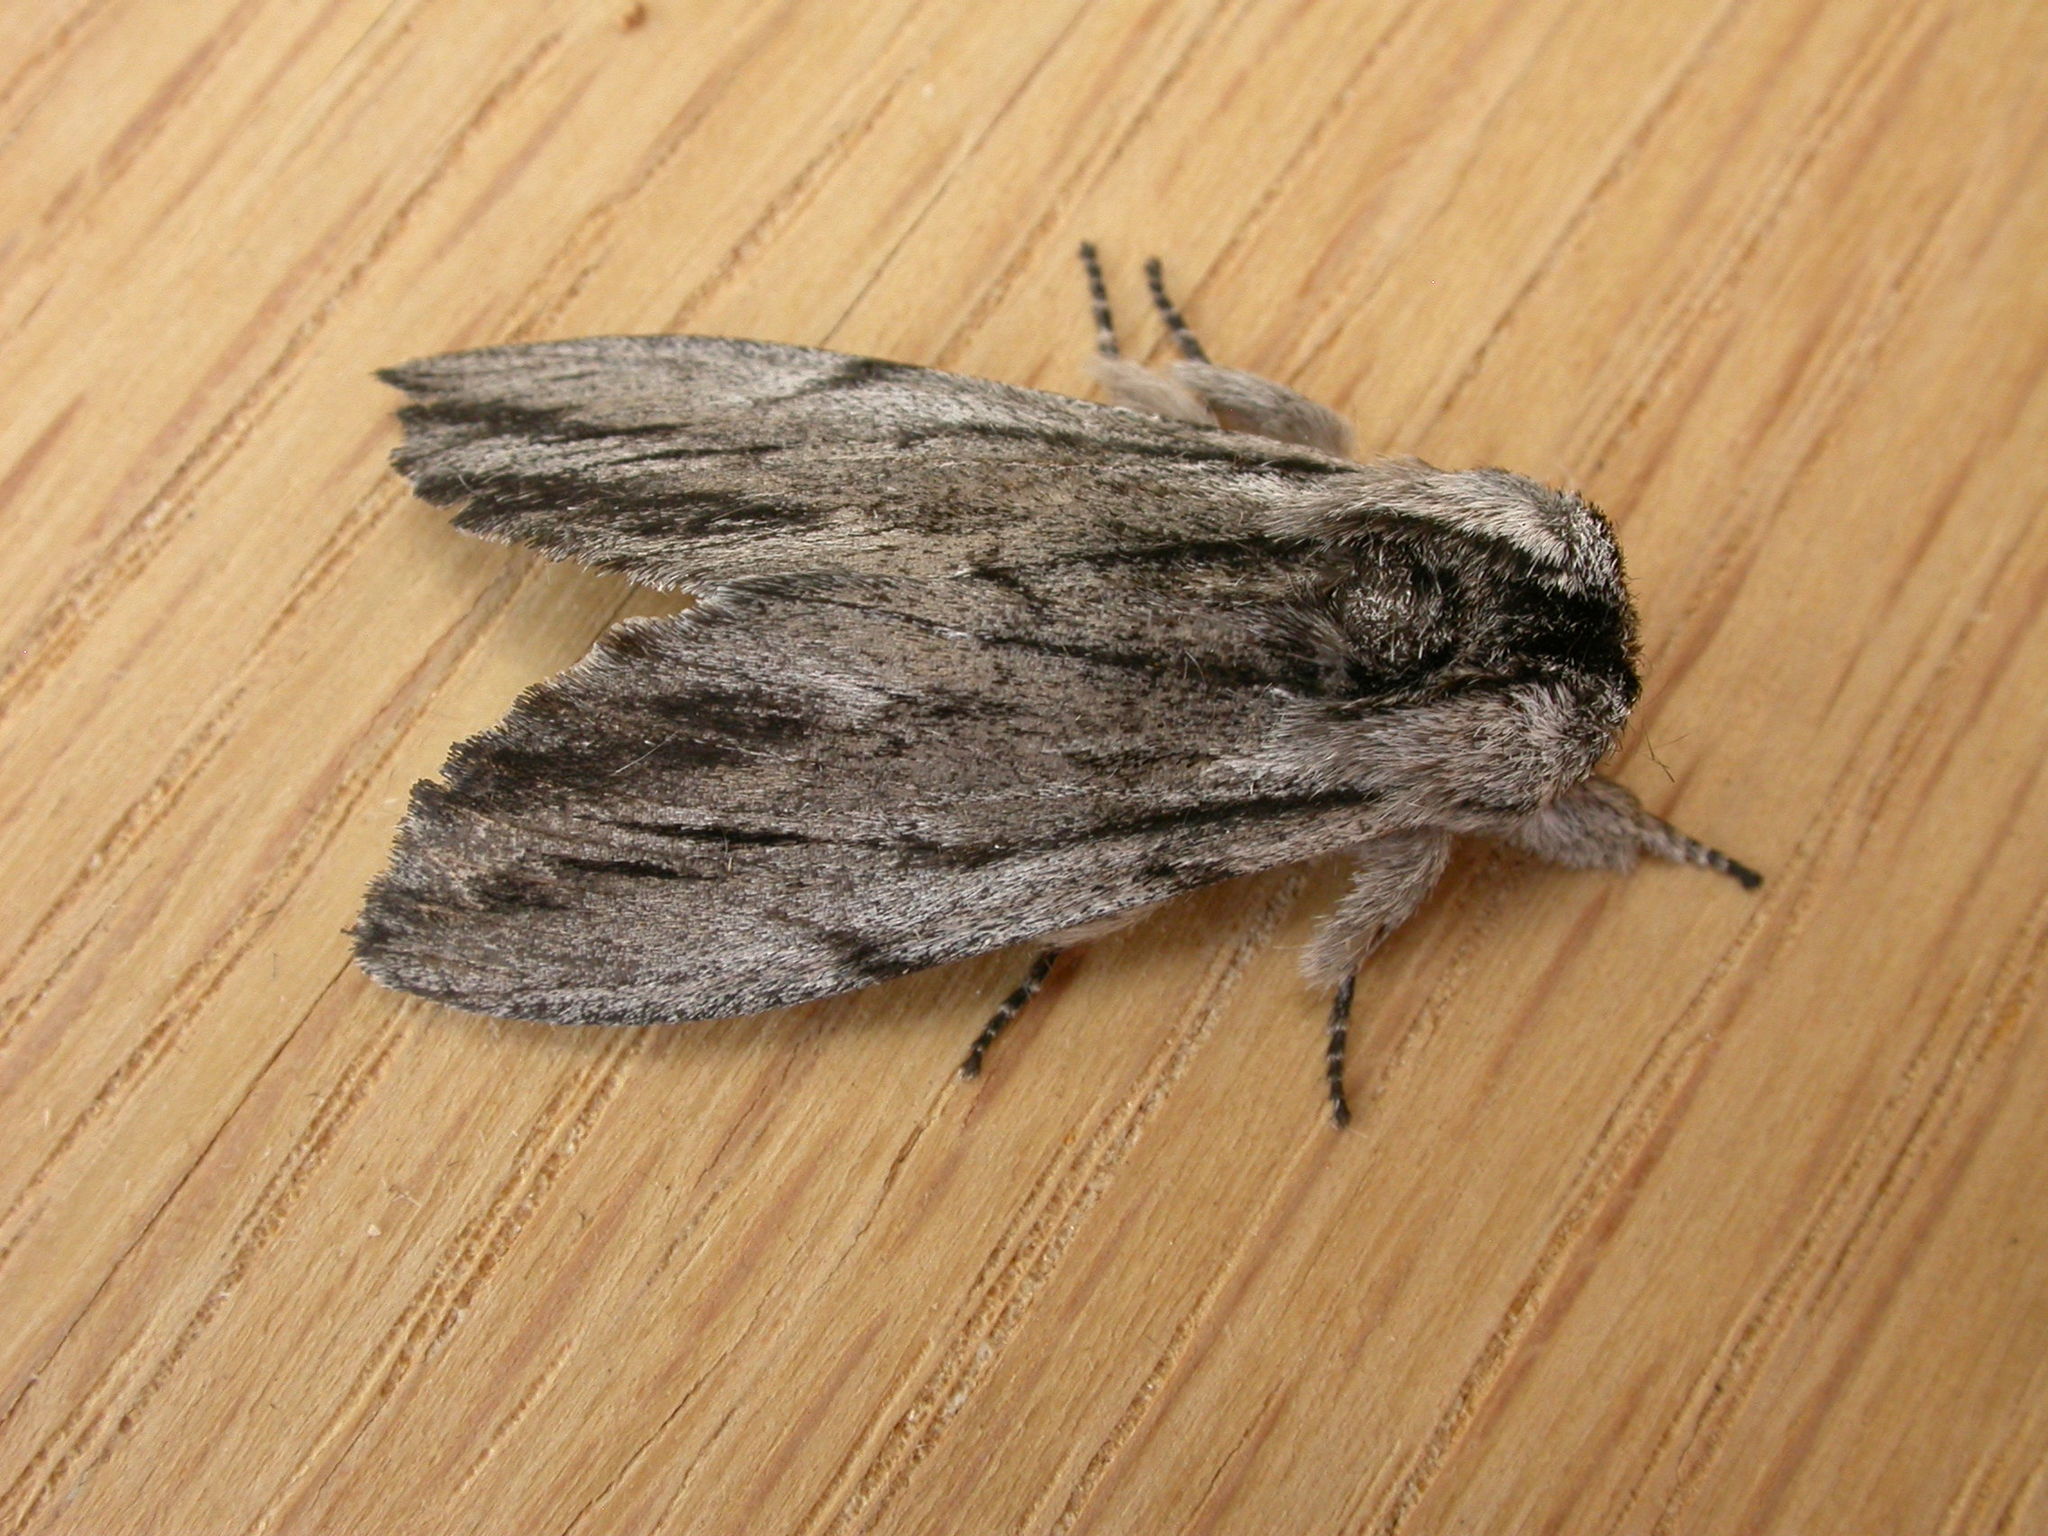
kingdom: Animalia
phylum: Arthropoda
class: Insecta
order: Lepidoptera
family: Notodontidae
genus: Destolmia
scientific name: Destolmia lineata
